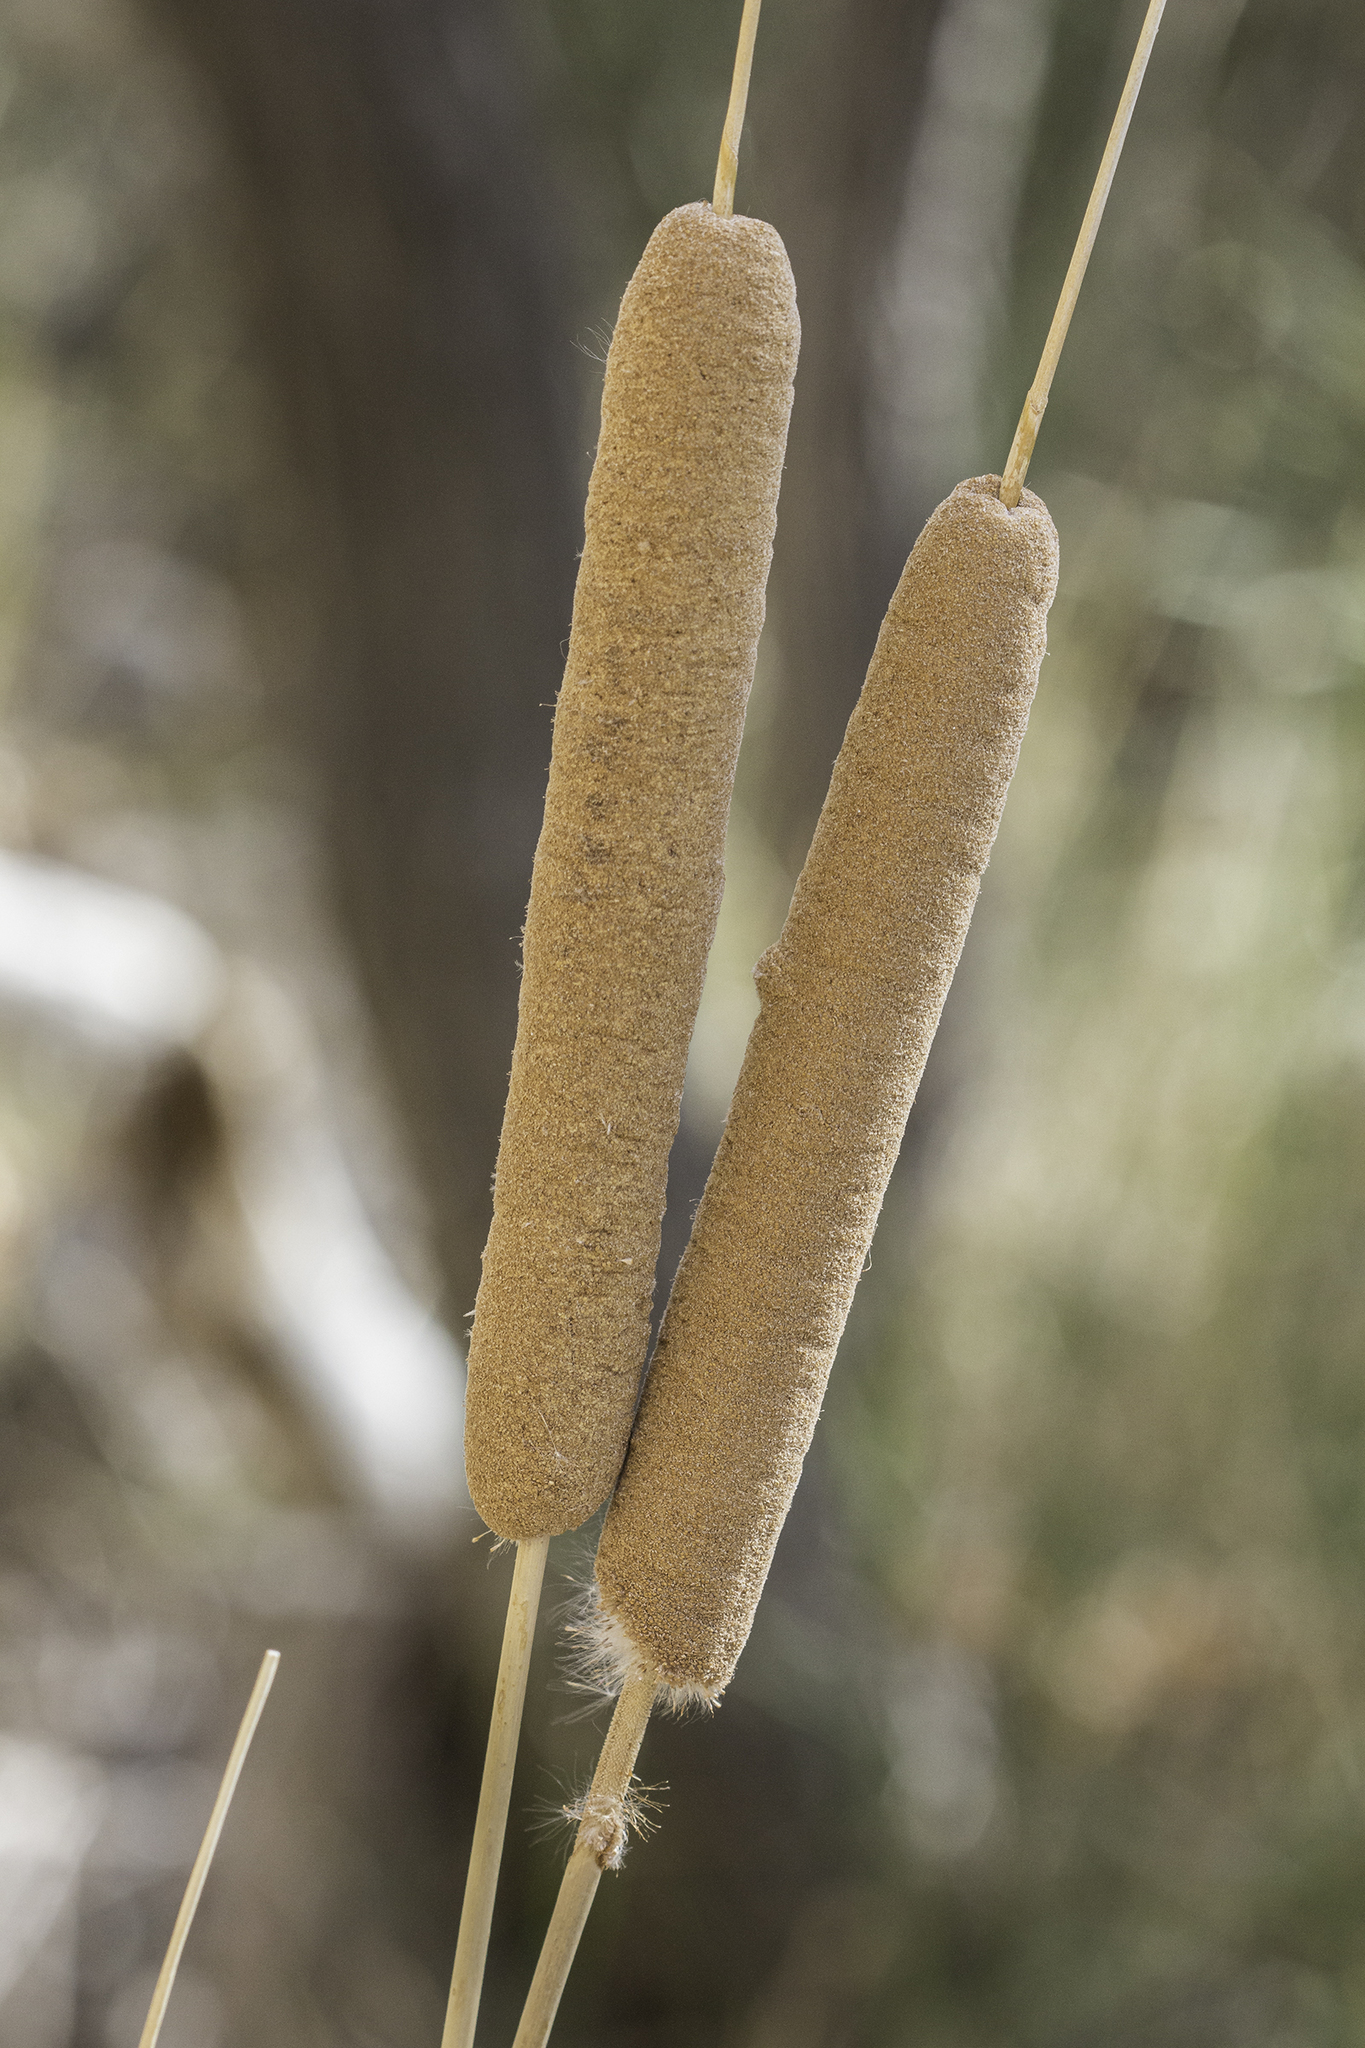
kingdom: Plantae
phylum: Tracheophyta
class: Liliopsida
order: Poales
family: Typhaceae
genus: Typha
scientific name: Typha domingensis
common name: Southern cattail
